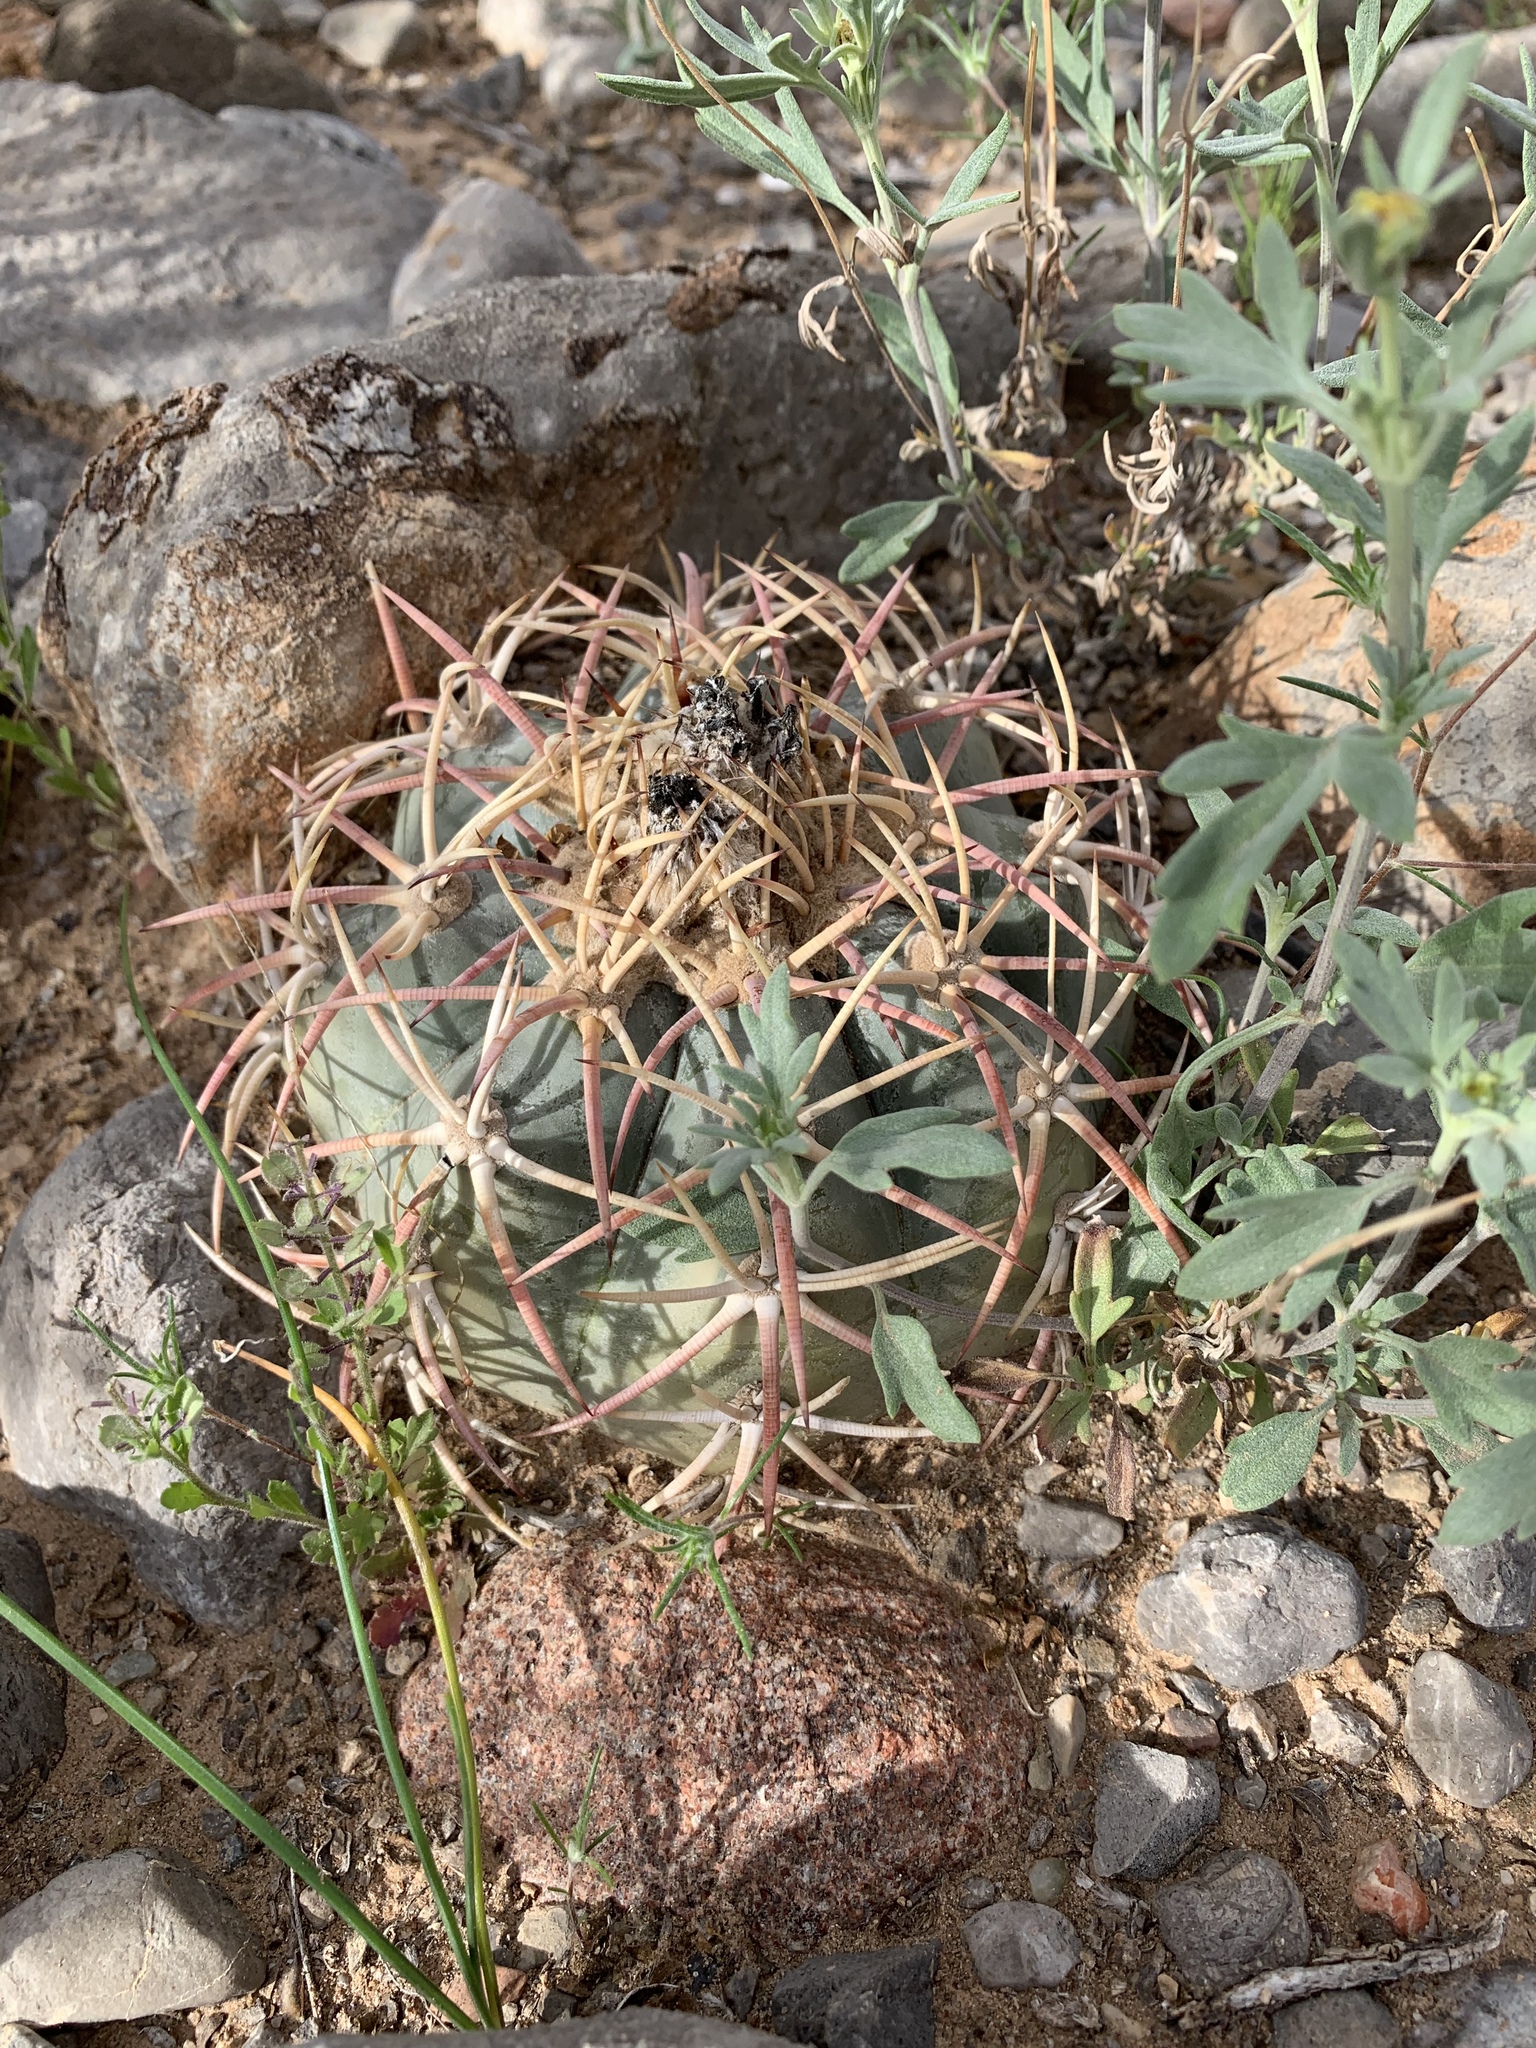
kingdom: Plantae
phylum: Tracheophyta
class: Magnoliopsida
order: Caryophyllales
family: Cactaceae
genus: Echinocactus
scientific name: Echinocactus horizonthalonius
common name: Devilshead
